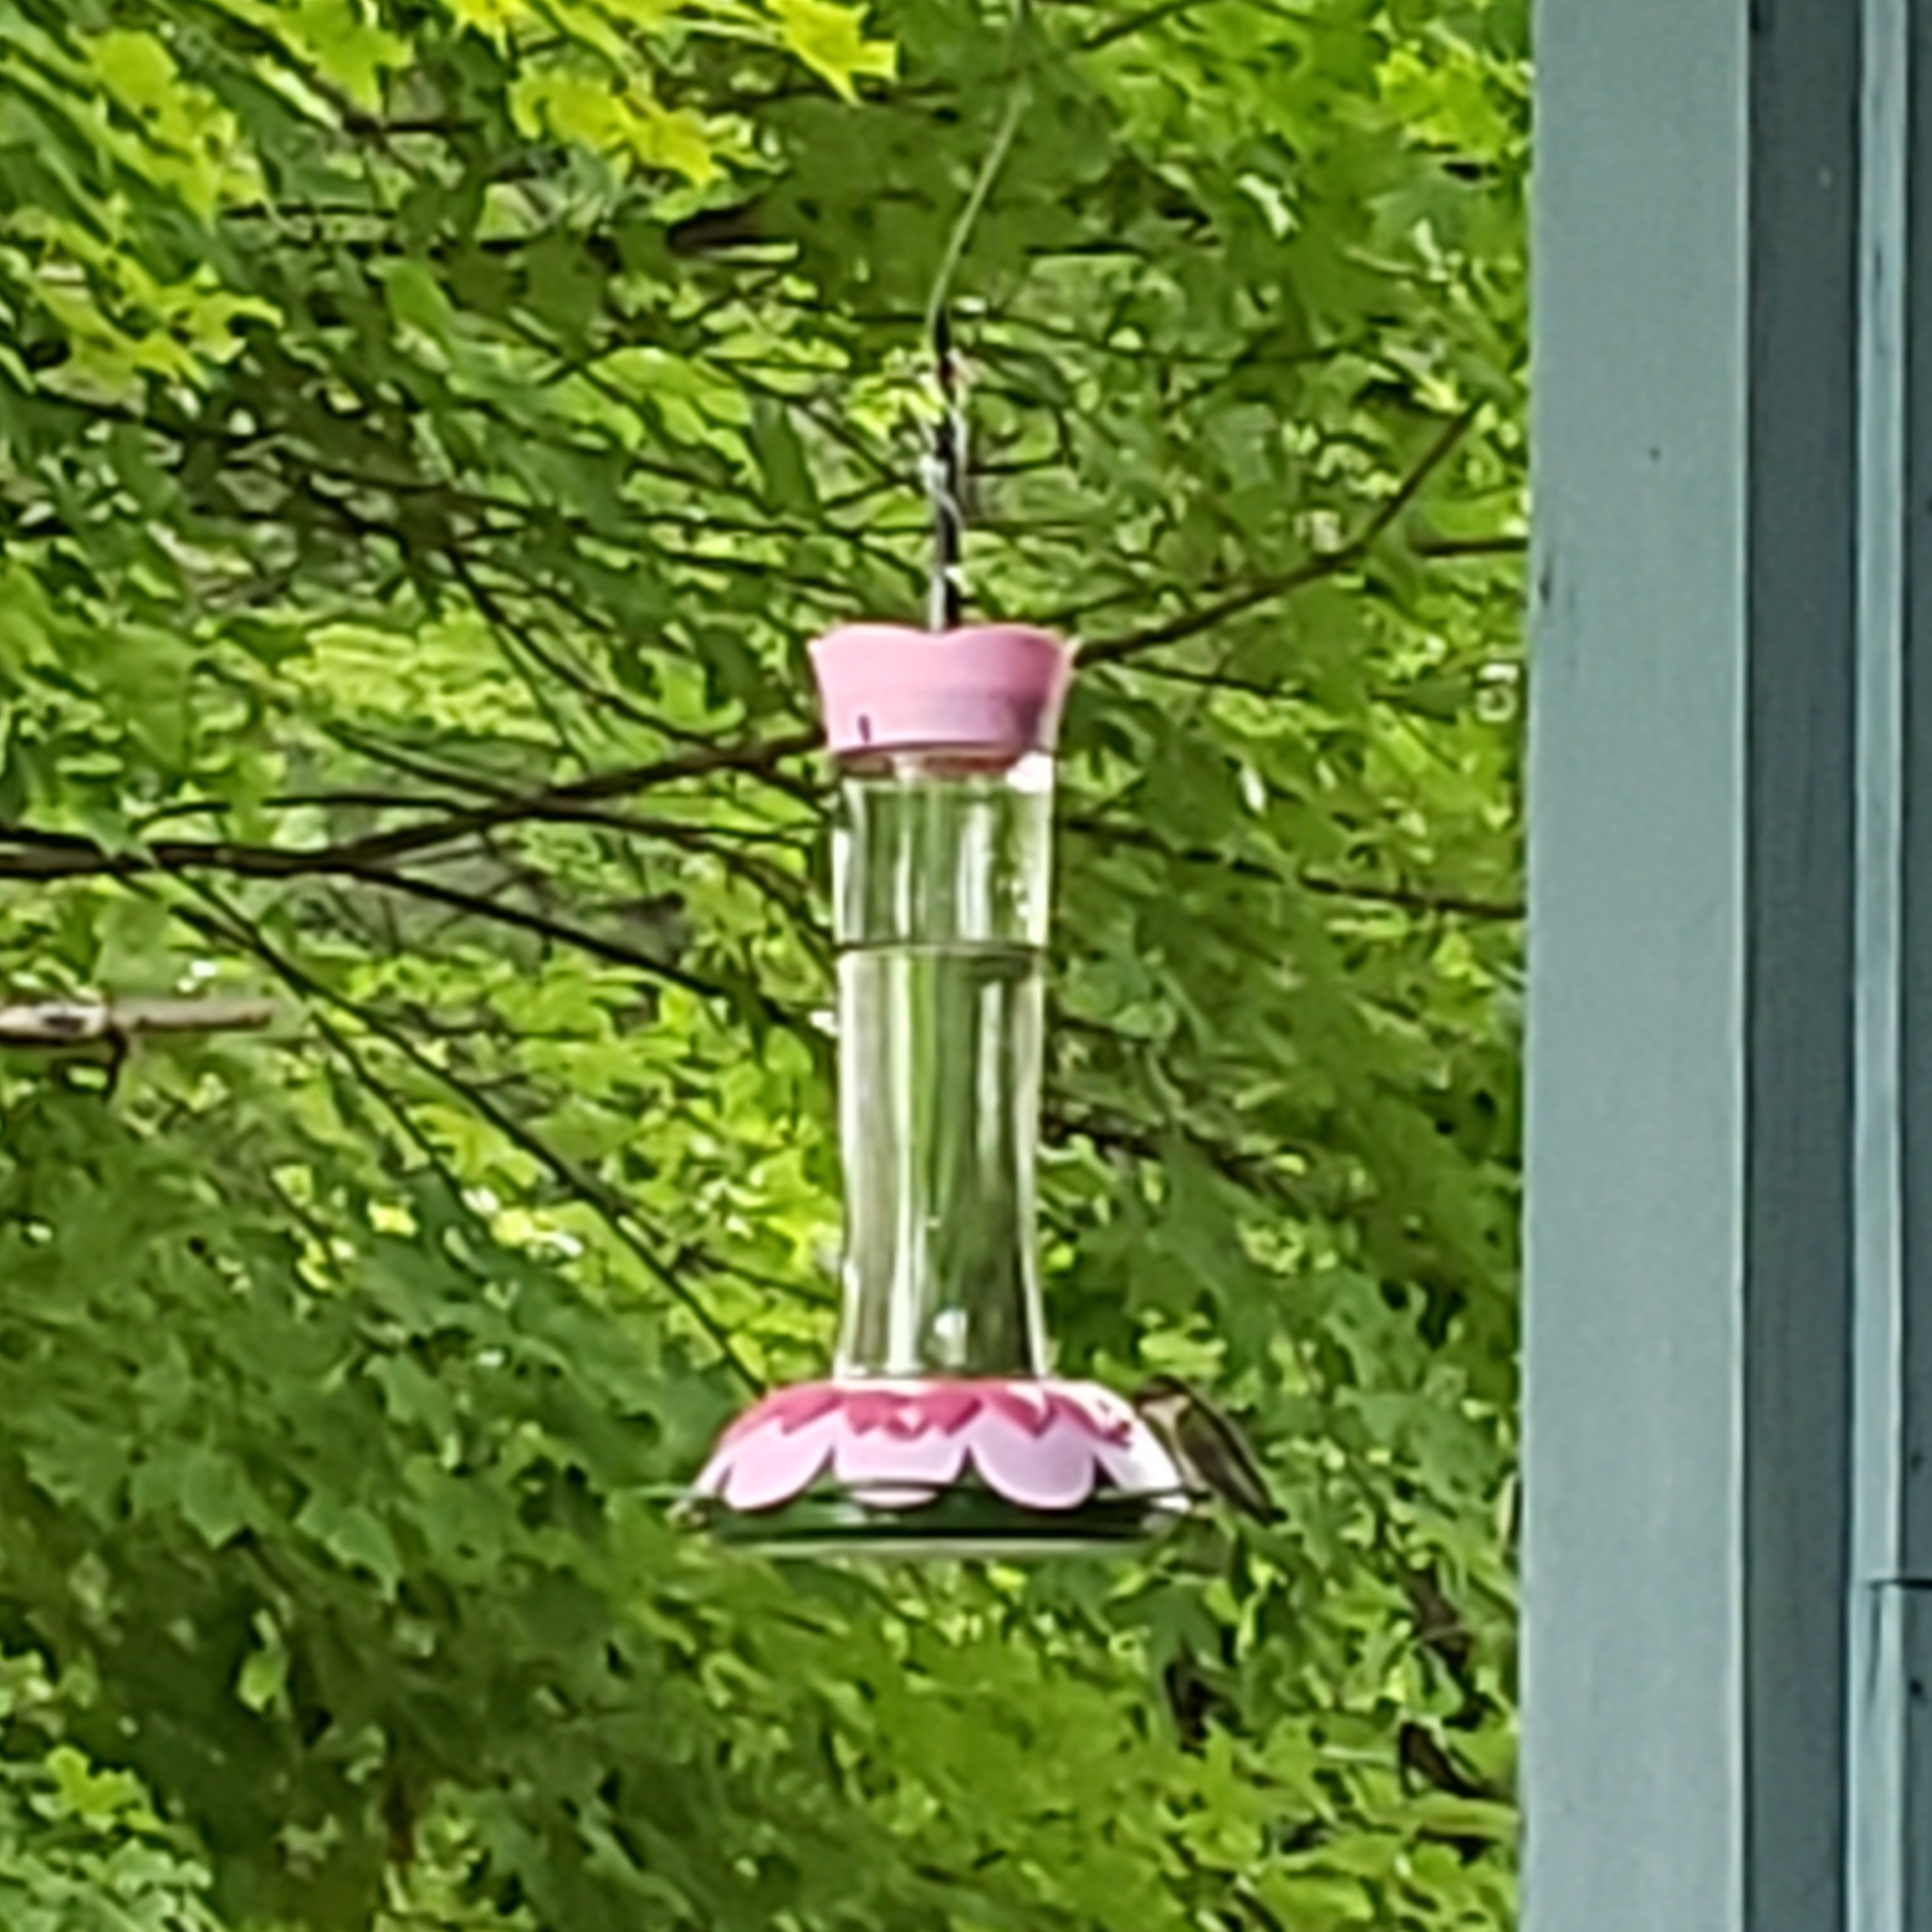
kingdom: Animalia
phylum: Chordata
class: Aves
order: Apodiformes
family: Trochilidae
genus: Archilochus
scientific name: Archilochus colubris
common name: Ruby-throated hummingbird
